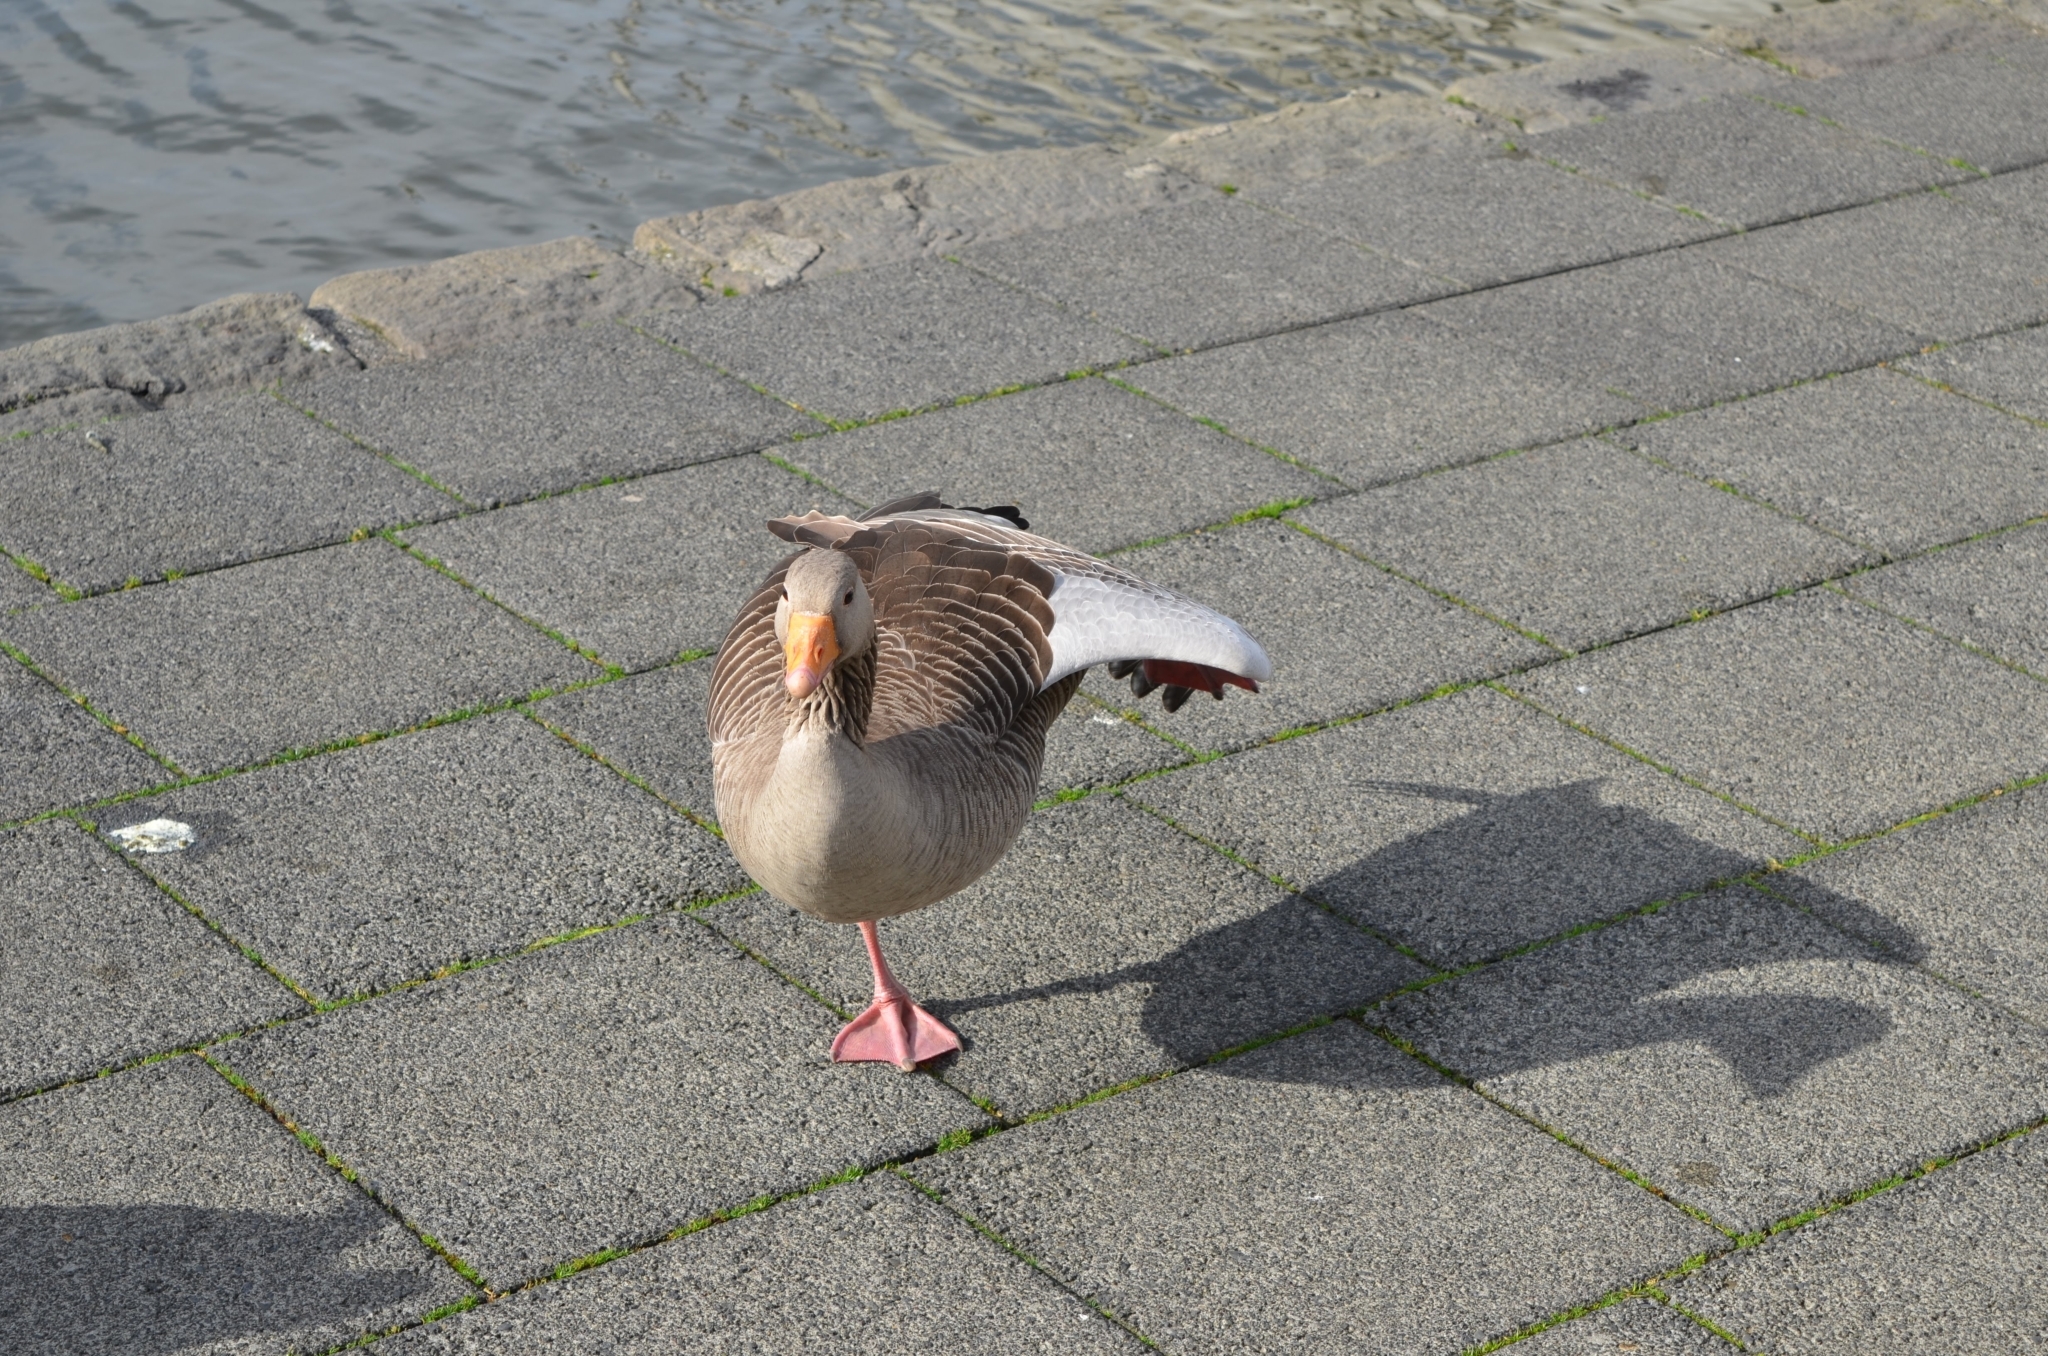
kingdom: Animalia
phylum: Chordata
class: Aves
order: Anseriformes
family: Anatidae
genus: Anser
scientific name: Anser anser
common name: Greylag goose
